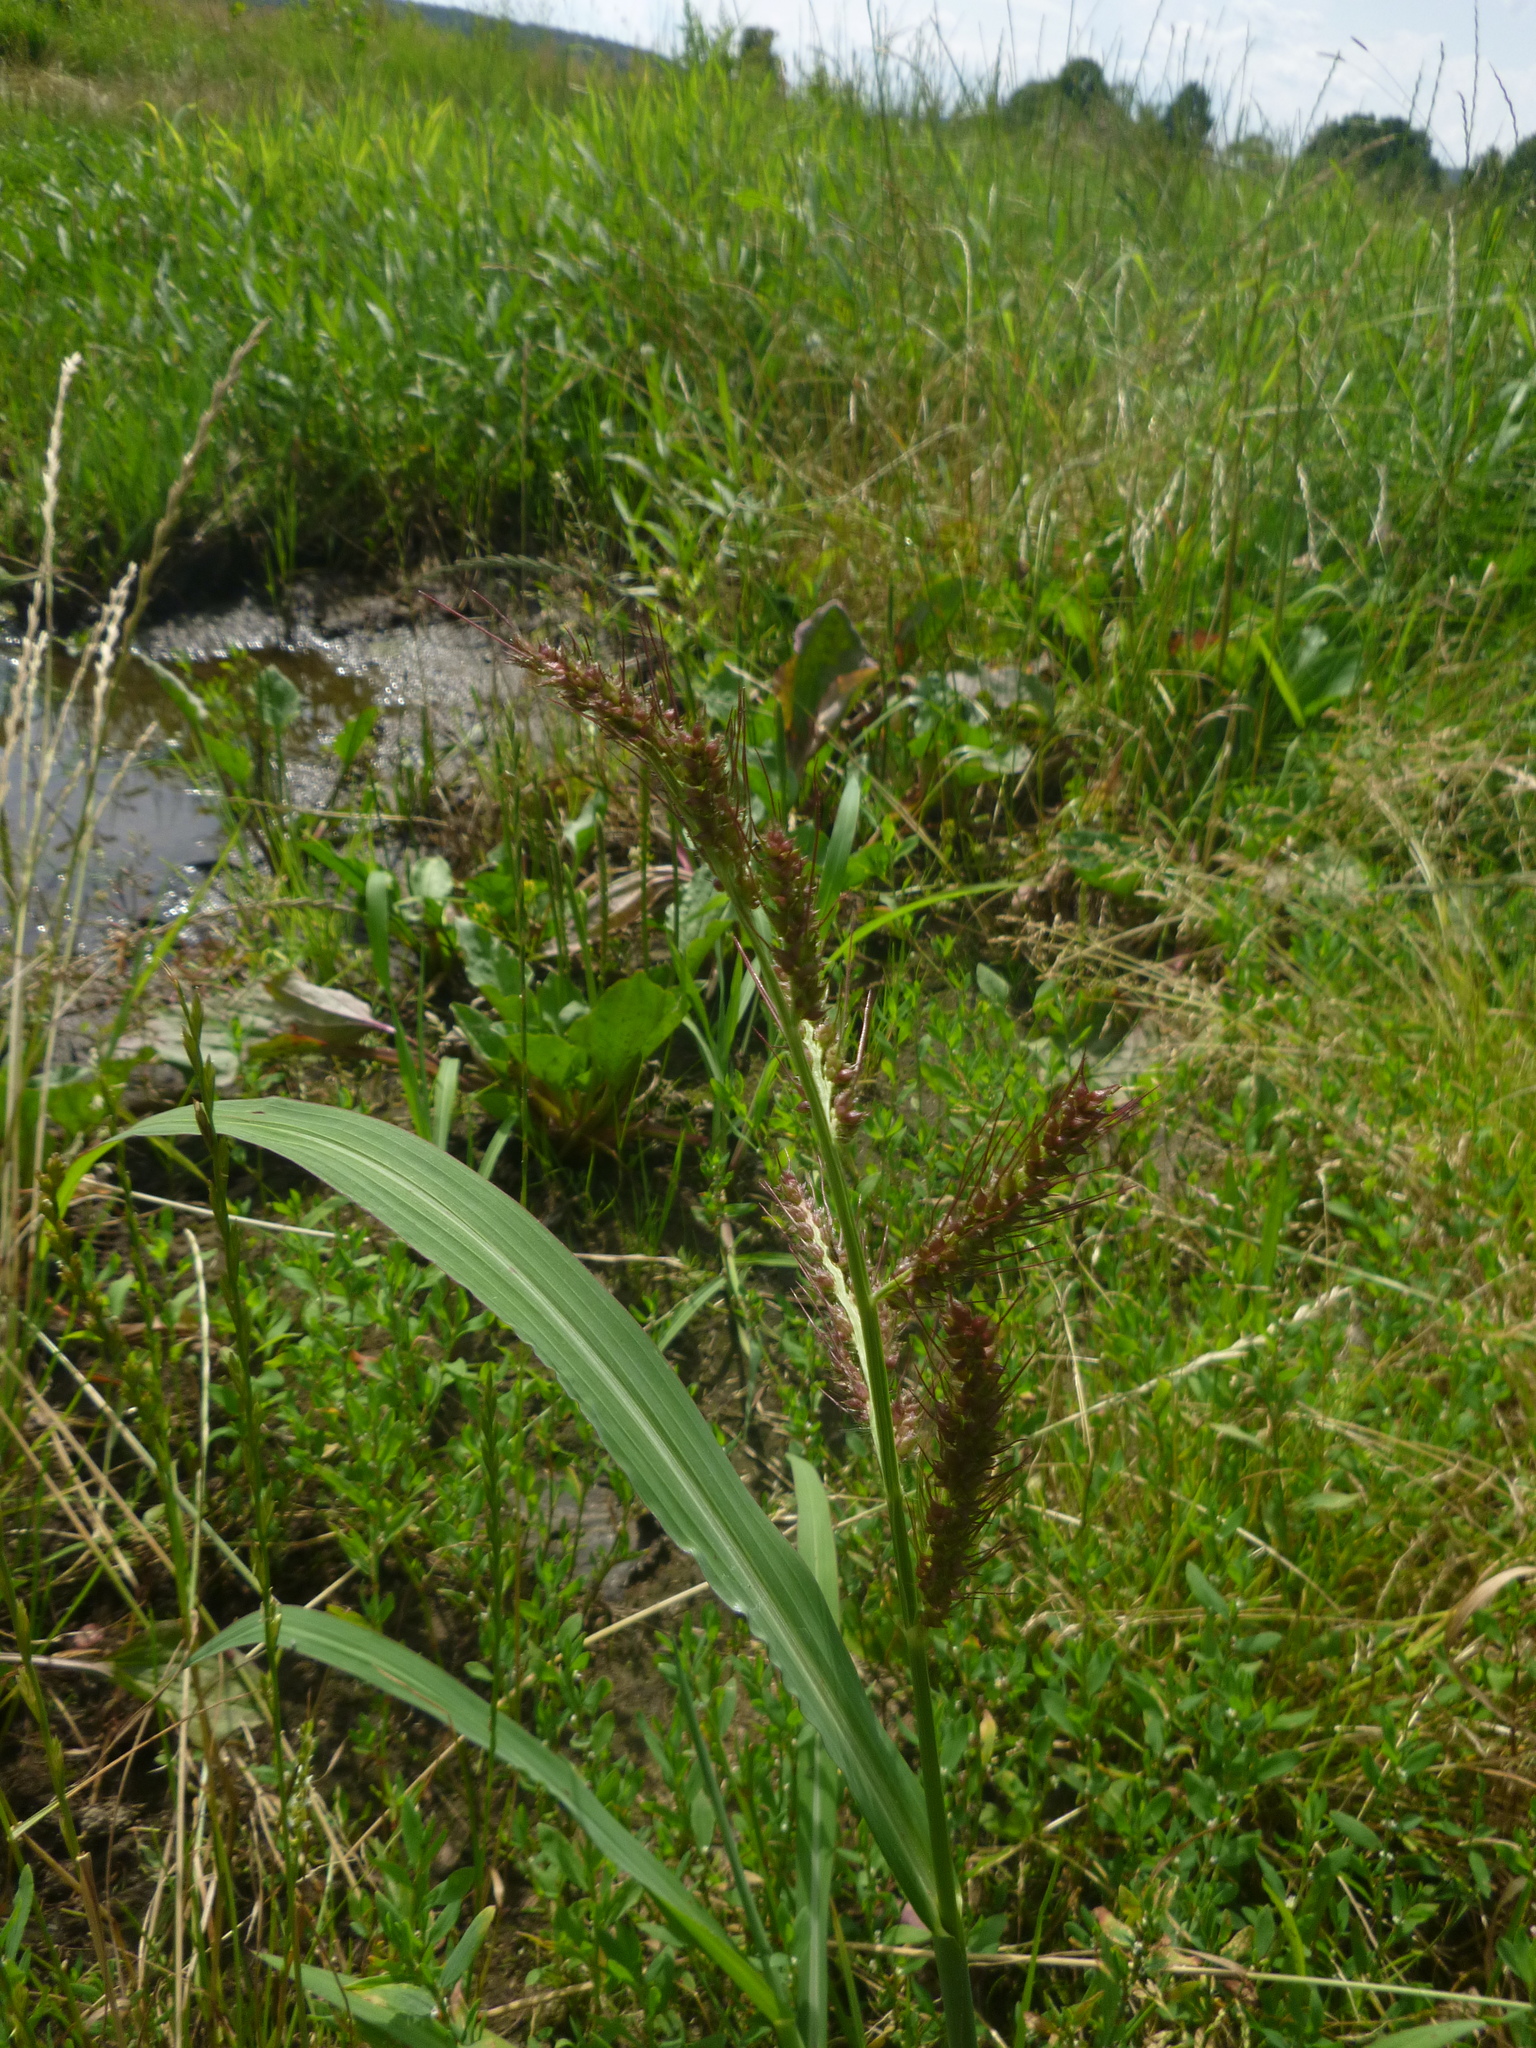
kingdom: Plantae
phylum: Tracheophyta
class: Liliopsida
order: Poales
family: Poaceae
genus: Echinochloa
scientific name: Echinochloa crus-galli
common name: Cockspur
